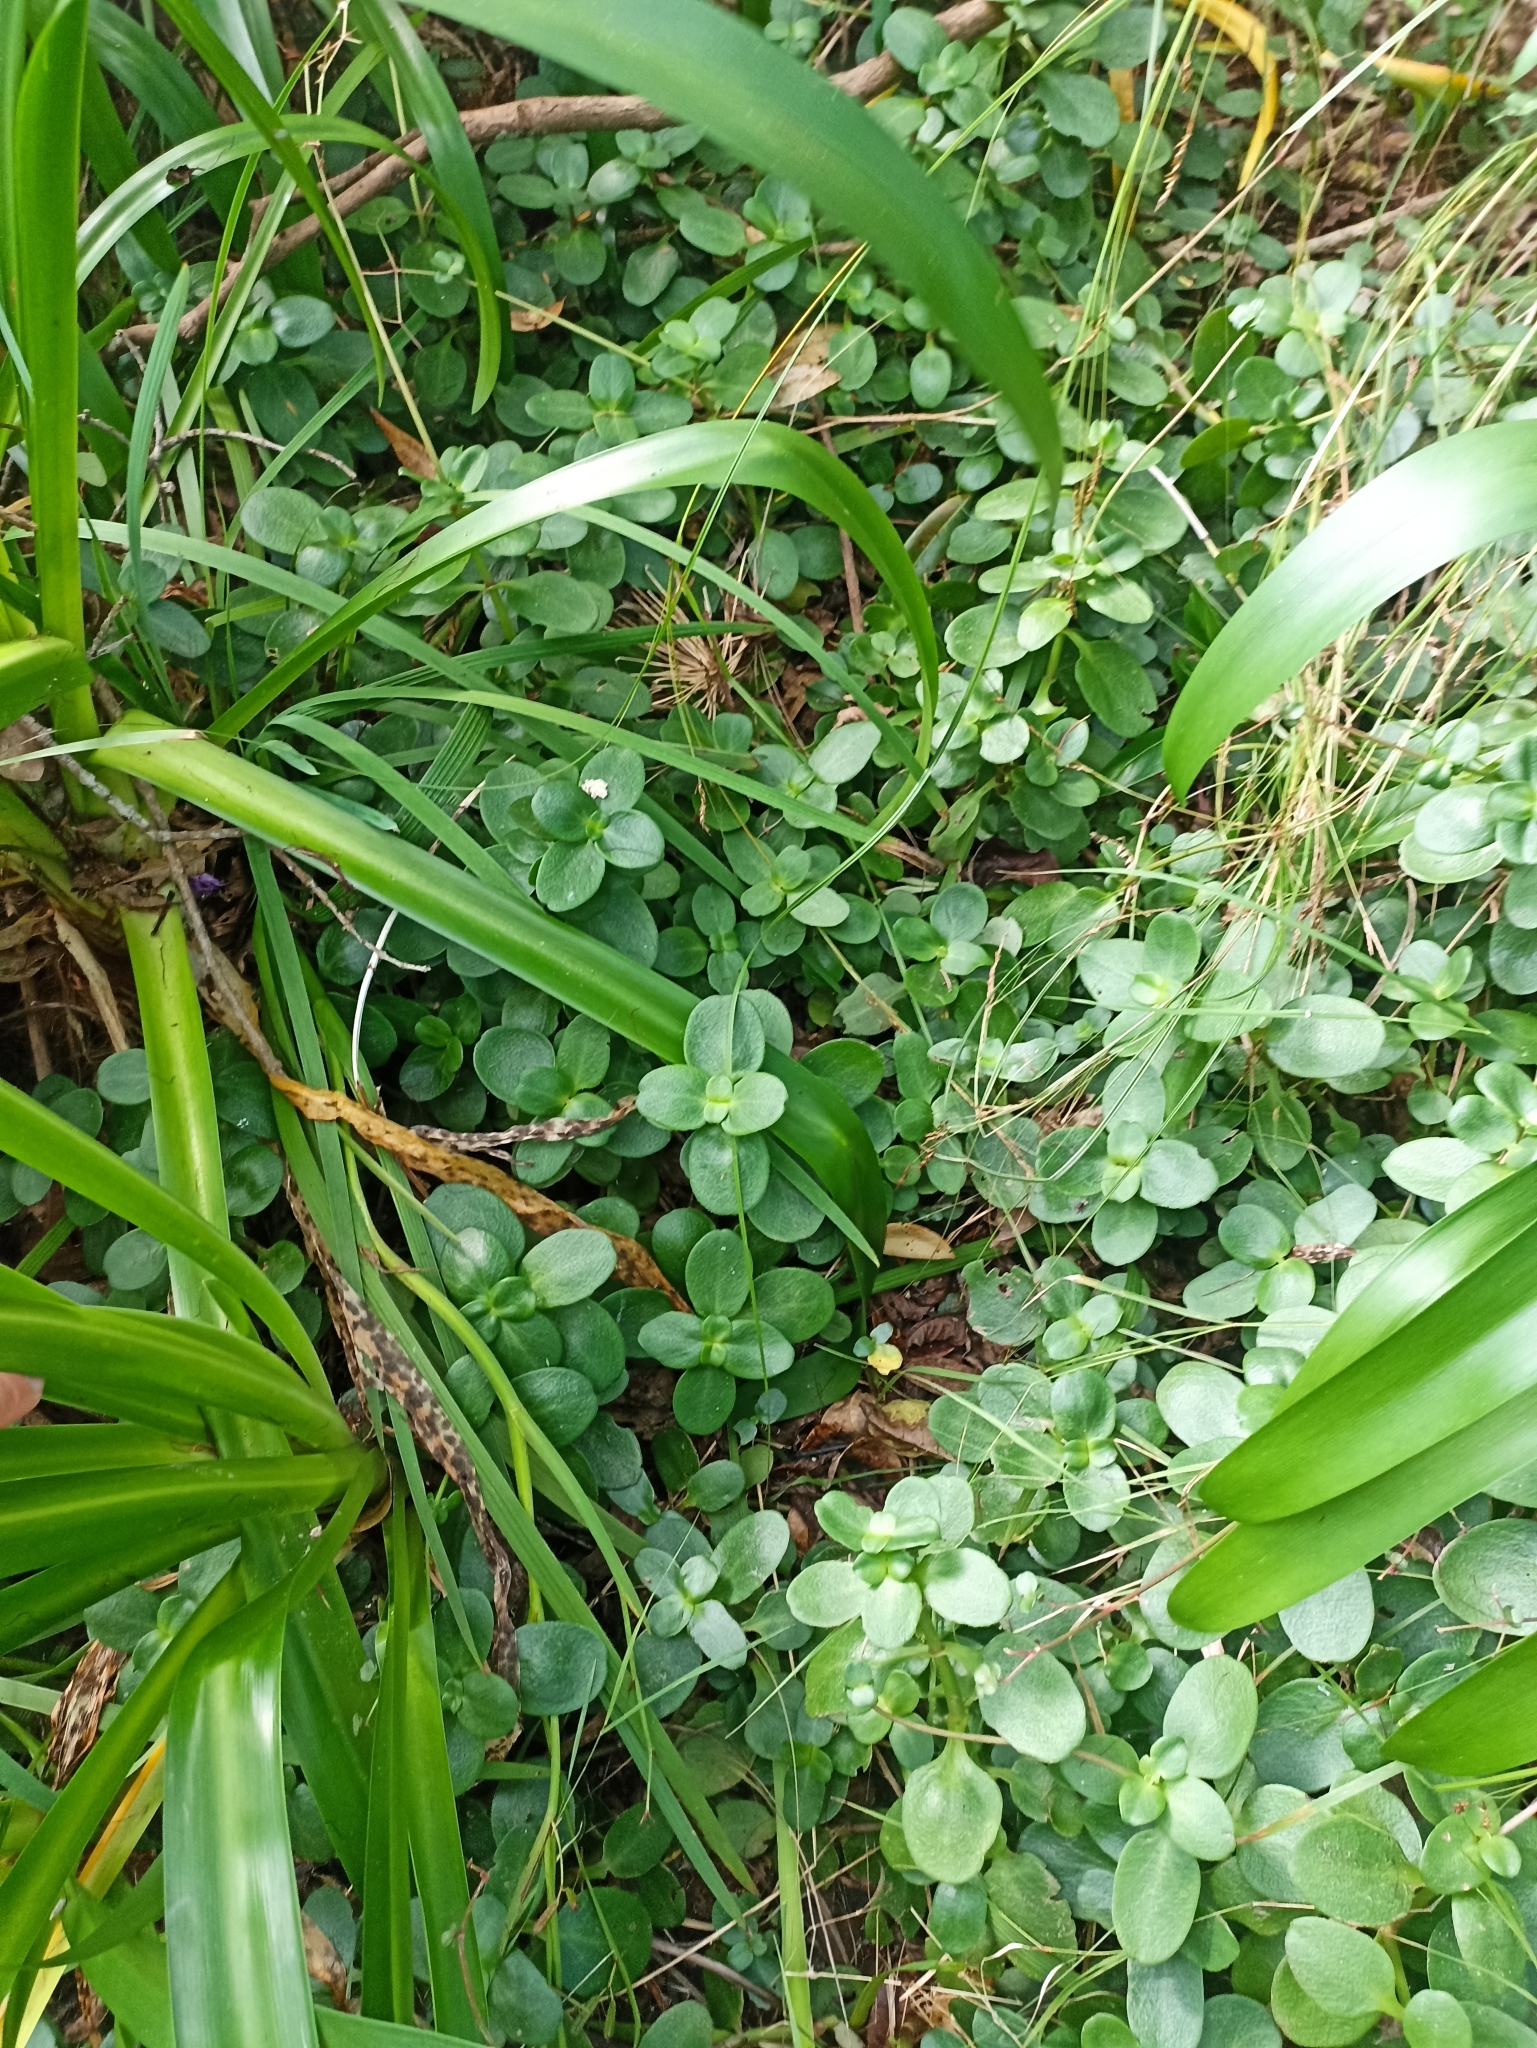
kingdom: Plantae
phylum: Tracheophyta
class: Magnoliopsida
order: Saxifragales
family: Crassulaceae
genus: Crassula
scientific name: Crassula multicava
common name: Cape province pygmyweed
